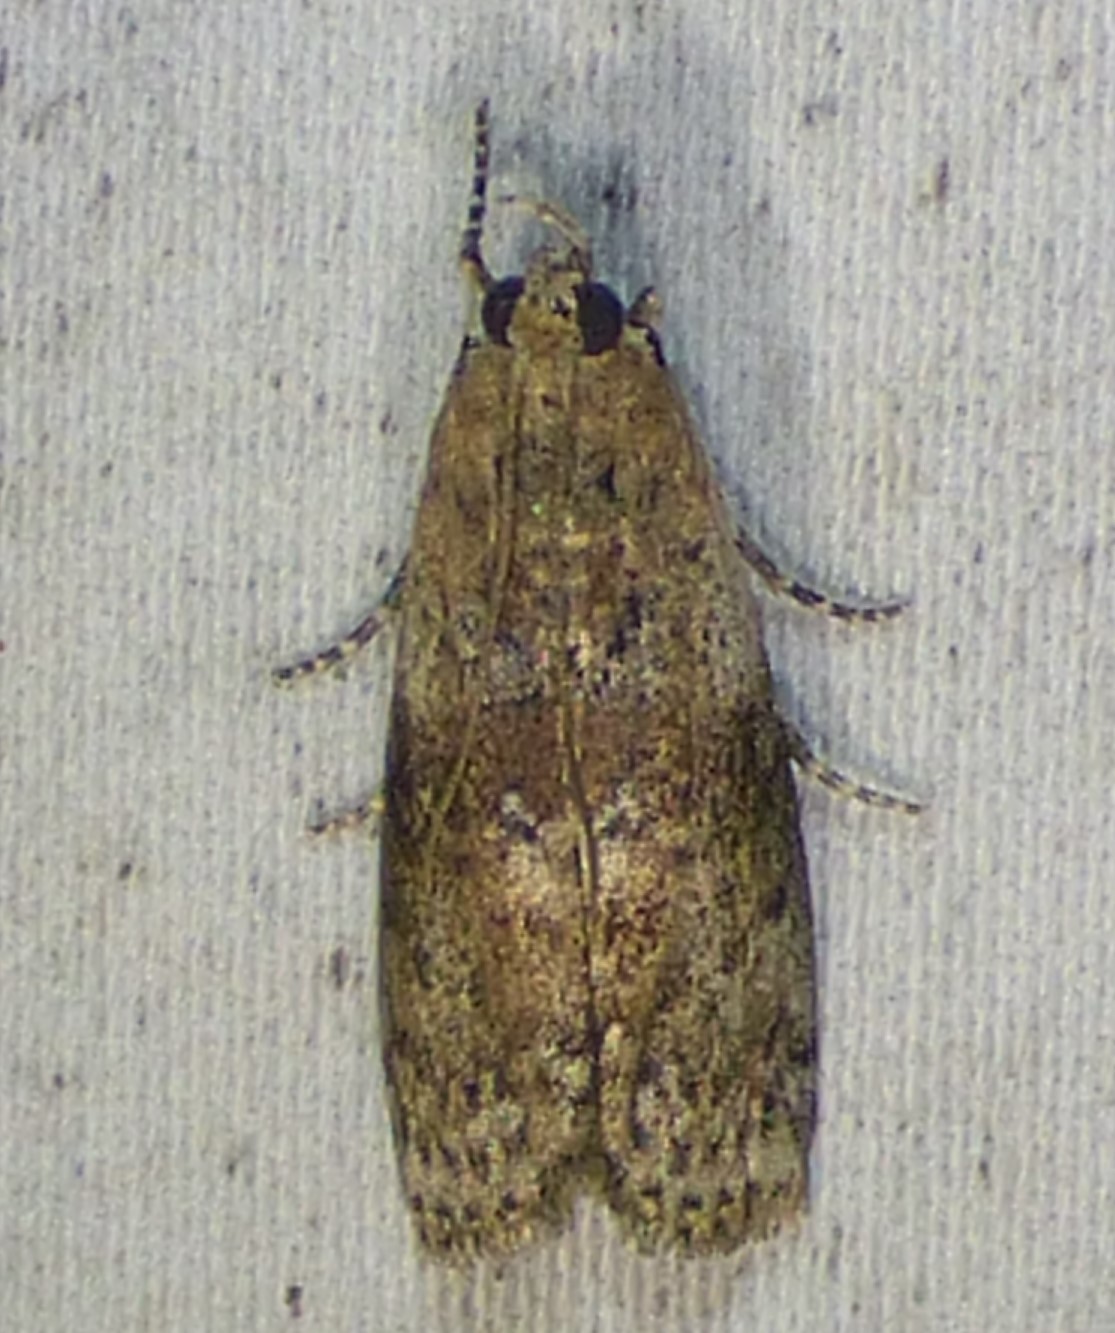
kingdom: Animalia
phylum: Arthropoda
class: Insecta
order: Lepidoptera
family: Pyralidae
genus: Sciota
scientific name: Sciota celtidella
